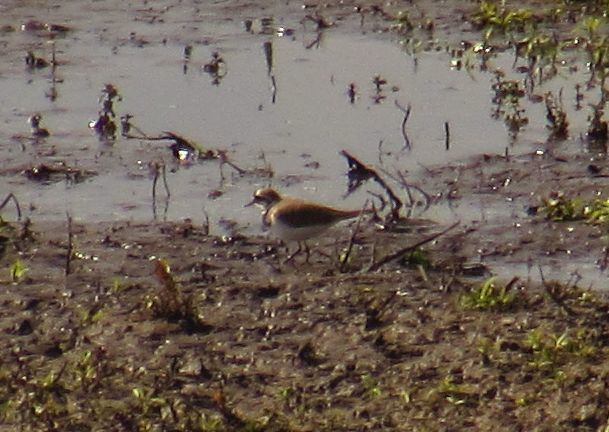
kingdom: Animalia
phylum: Chordata
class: Aves
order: Charadriiformes
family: Charadriidae
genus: Charadrius
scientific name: Charadrius dubius
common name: Little ringed plover
